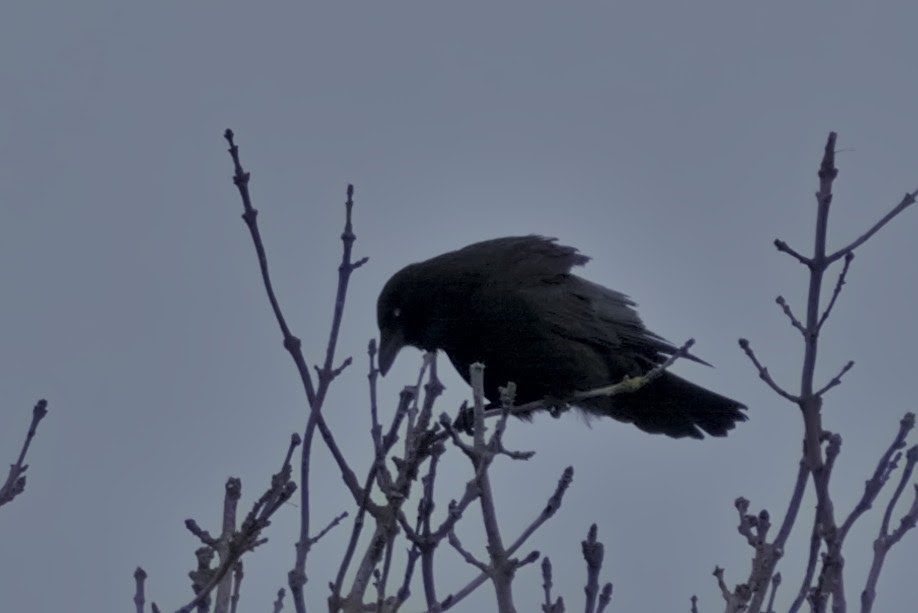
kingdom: Animalia
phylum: Chordata
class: Aves
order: Passeriformes
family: Corvidae
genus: Corvus
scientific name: Corvus corone
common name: Carrion crow
